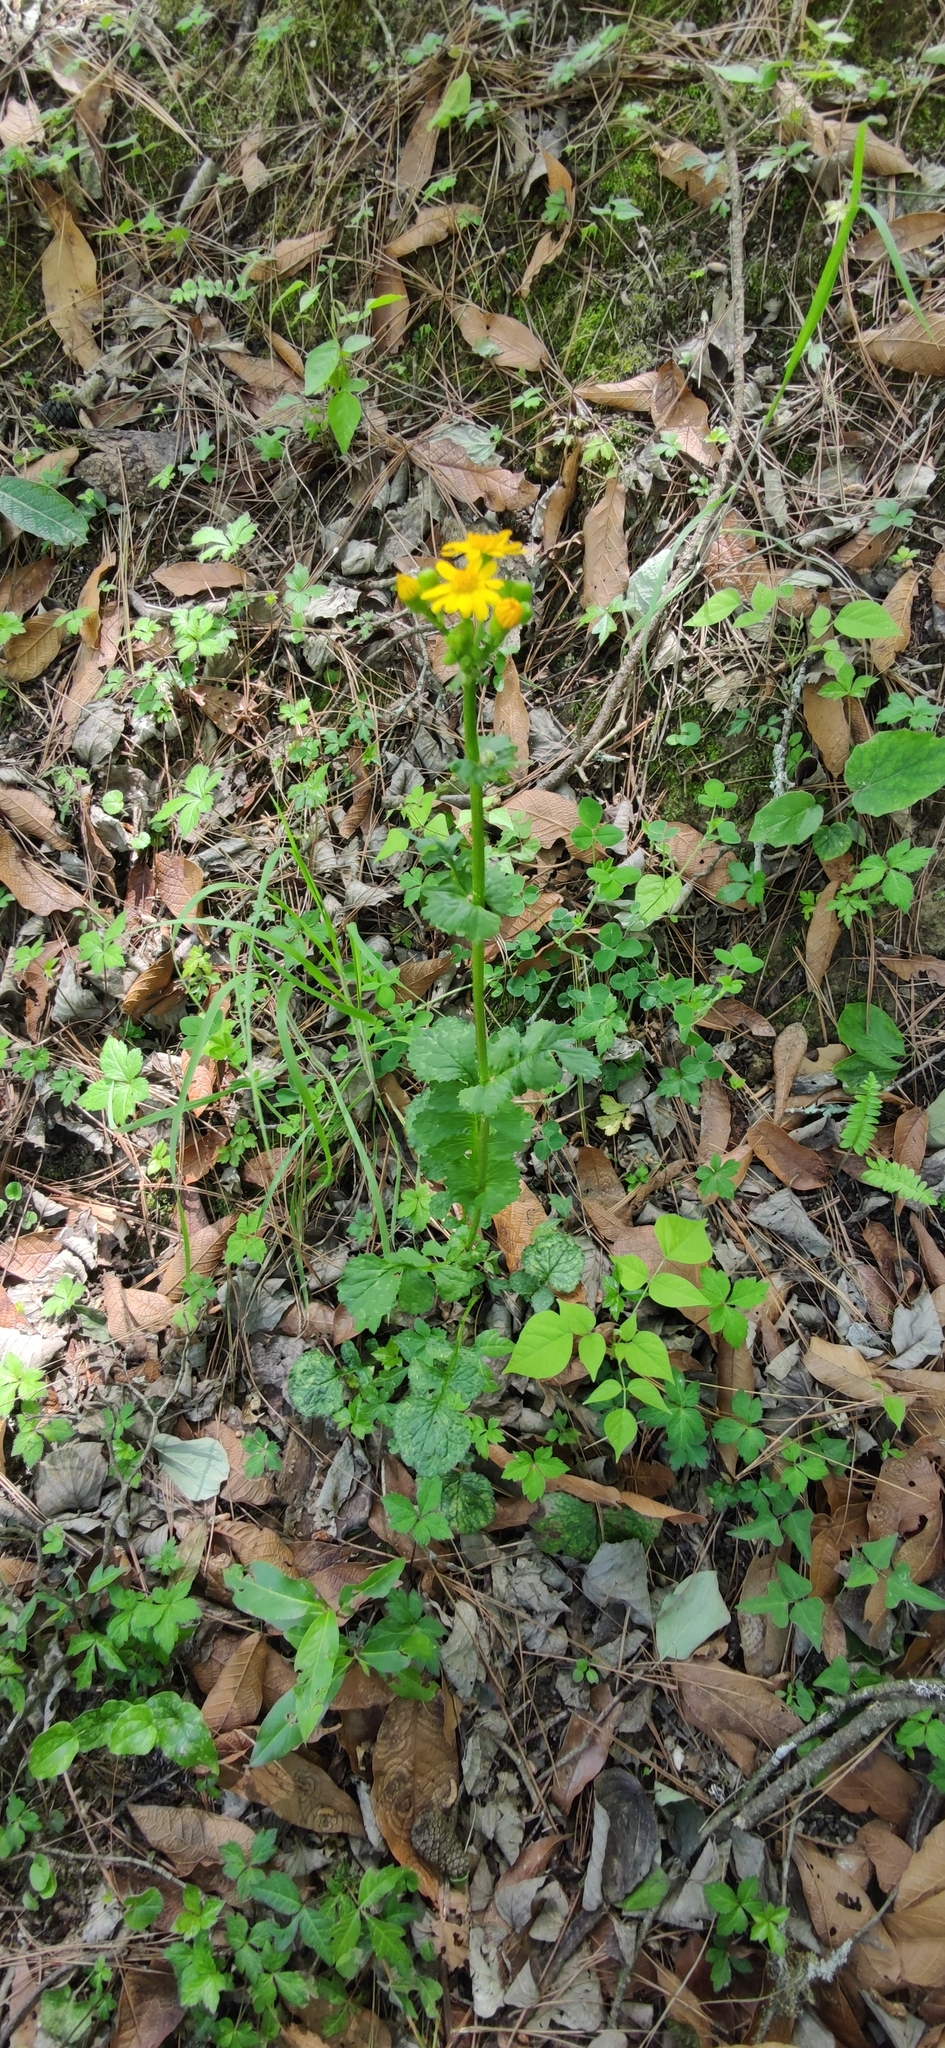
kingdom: Plantae
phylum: Tracheophyta
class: Magnoliopsida
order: Asterales
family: Asteraceae
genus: Packera
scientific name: Packera coahuilensis
